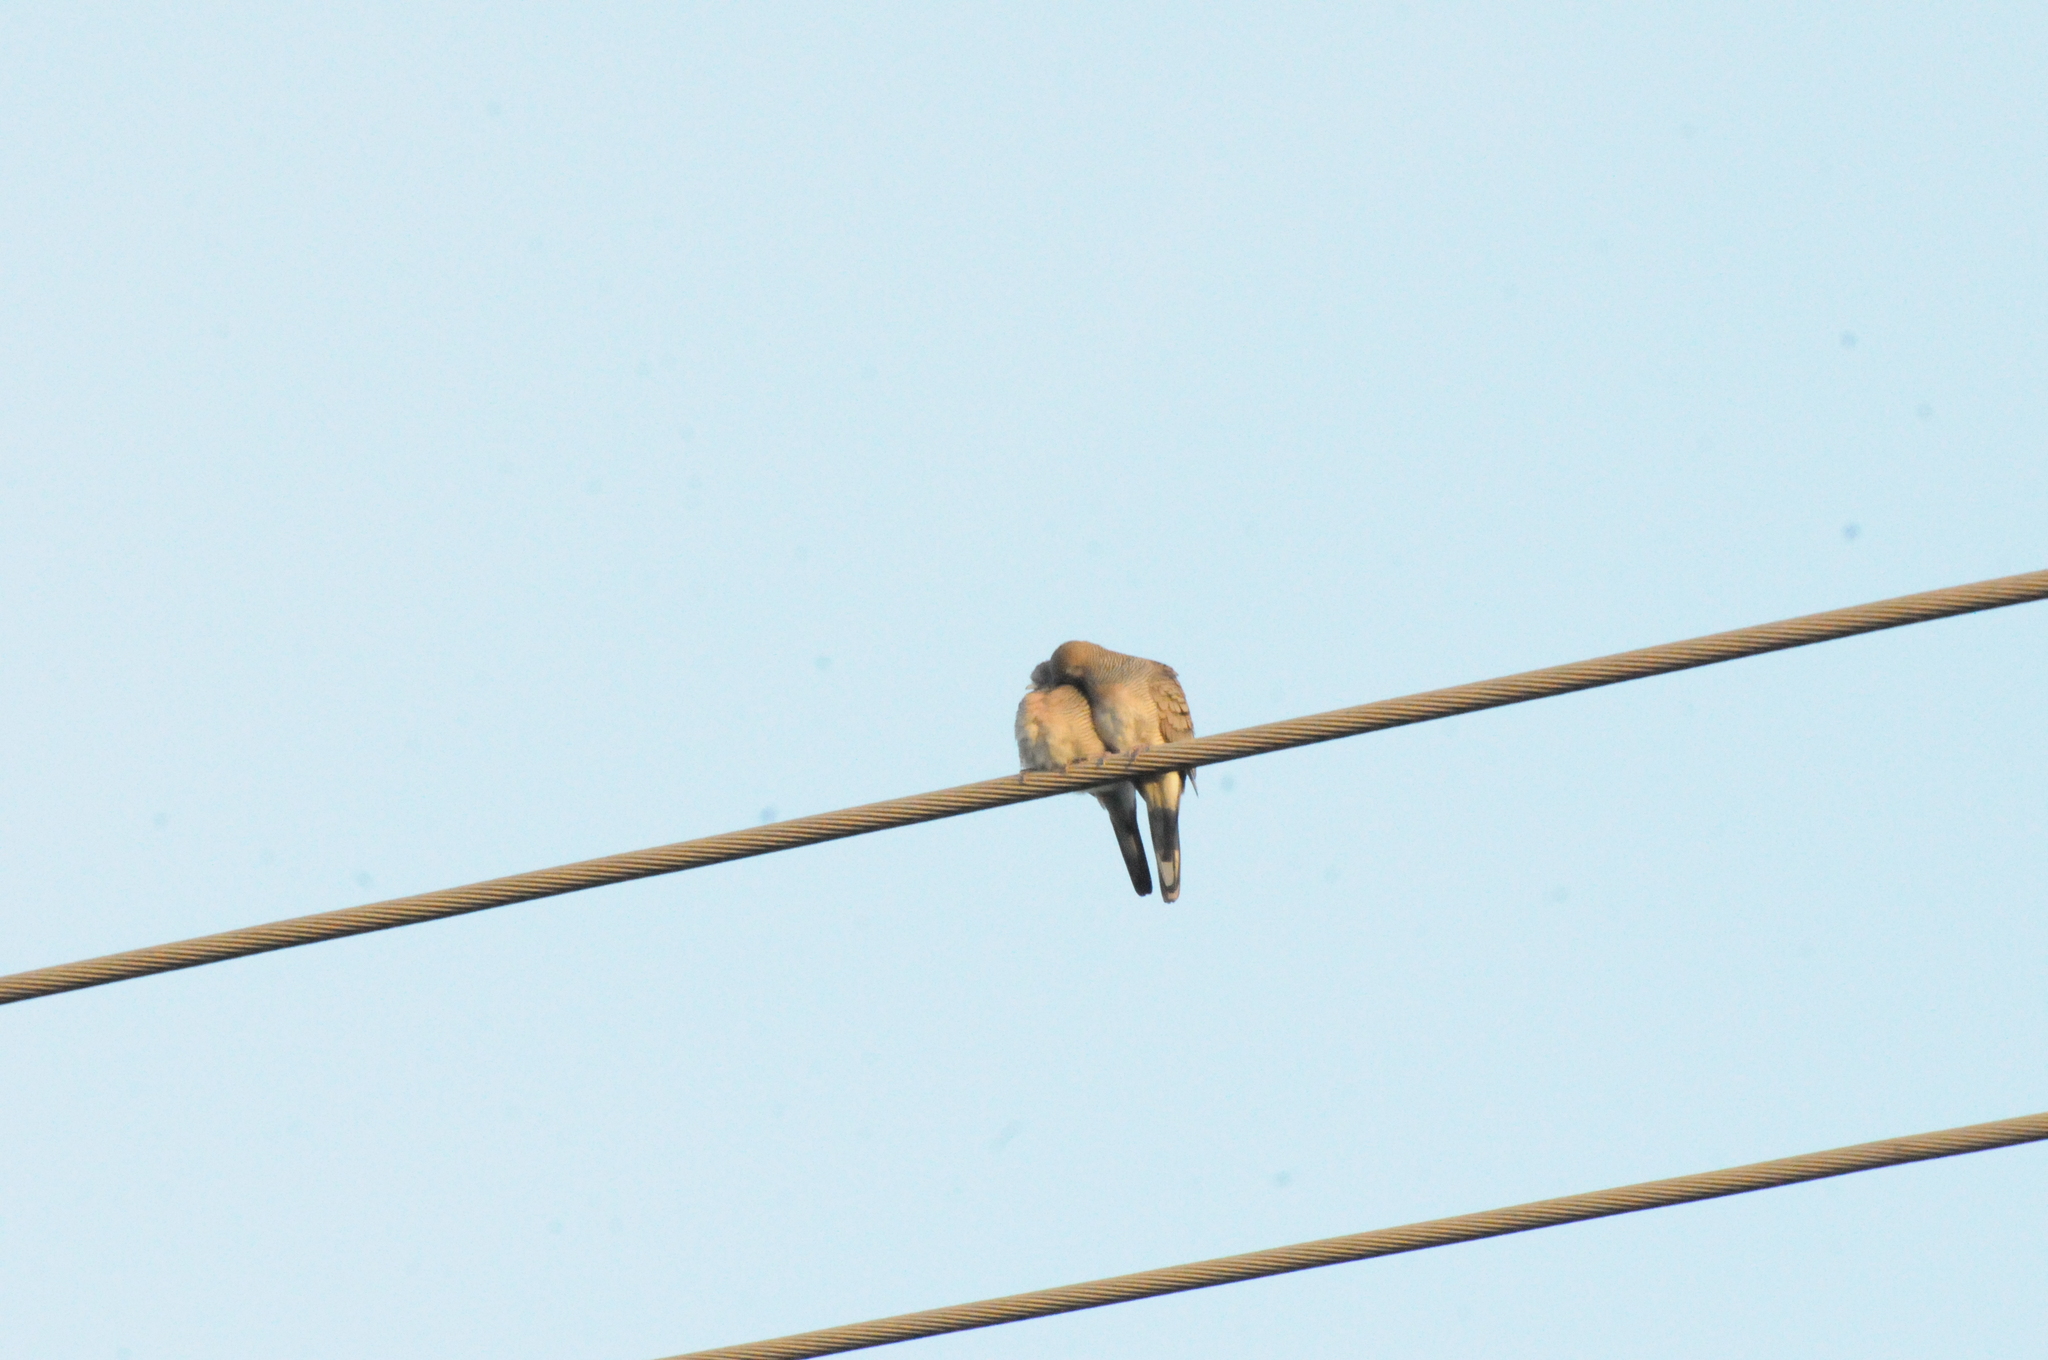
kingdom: Animalia
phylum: Chordata
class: Aves
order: Columbiformes
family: Columbidae
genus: Geopelia
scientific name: Geopelia striata
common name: Zebra dove
